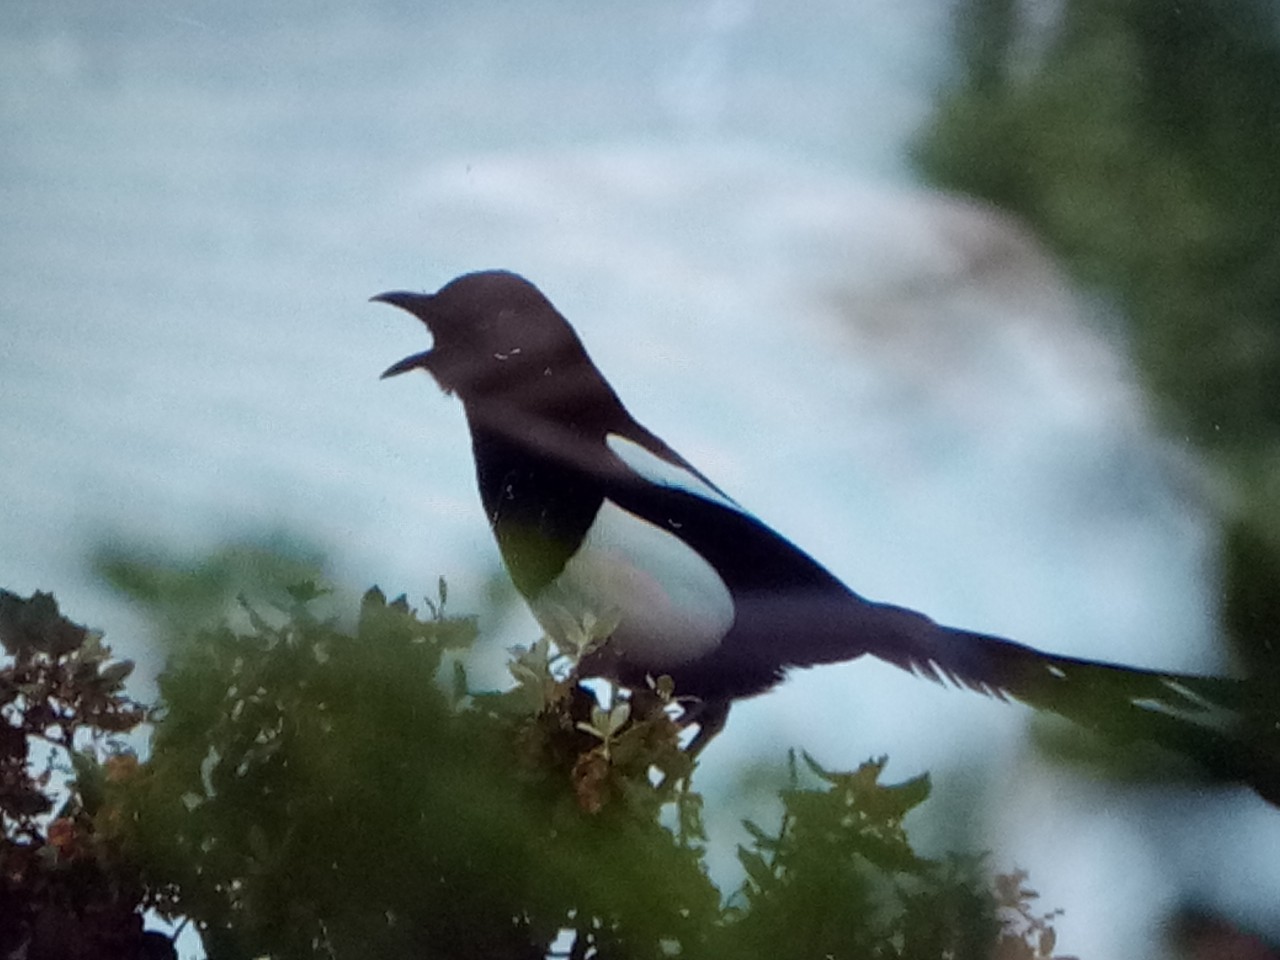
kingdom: Animalia
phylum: Chordata
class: Aves
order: Passeriformes
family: Corvidae
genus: Pica
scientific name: Pica mauritanica
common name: Maghreb magpie
